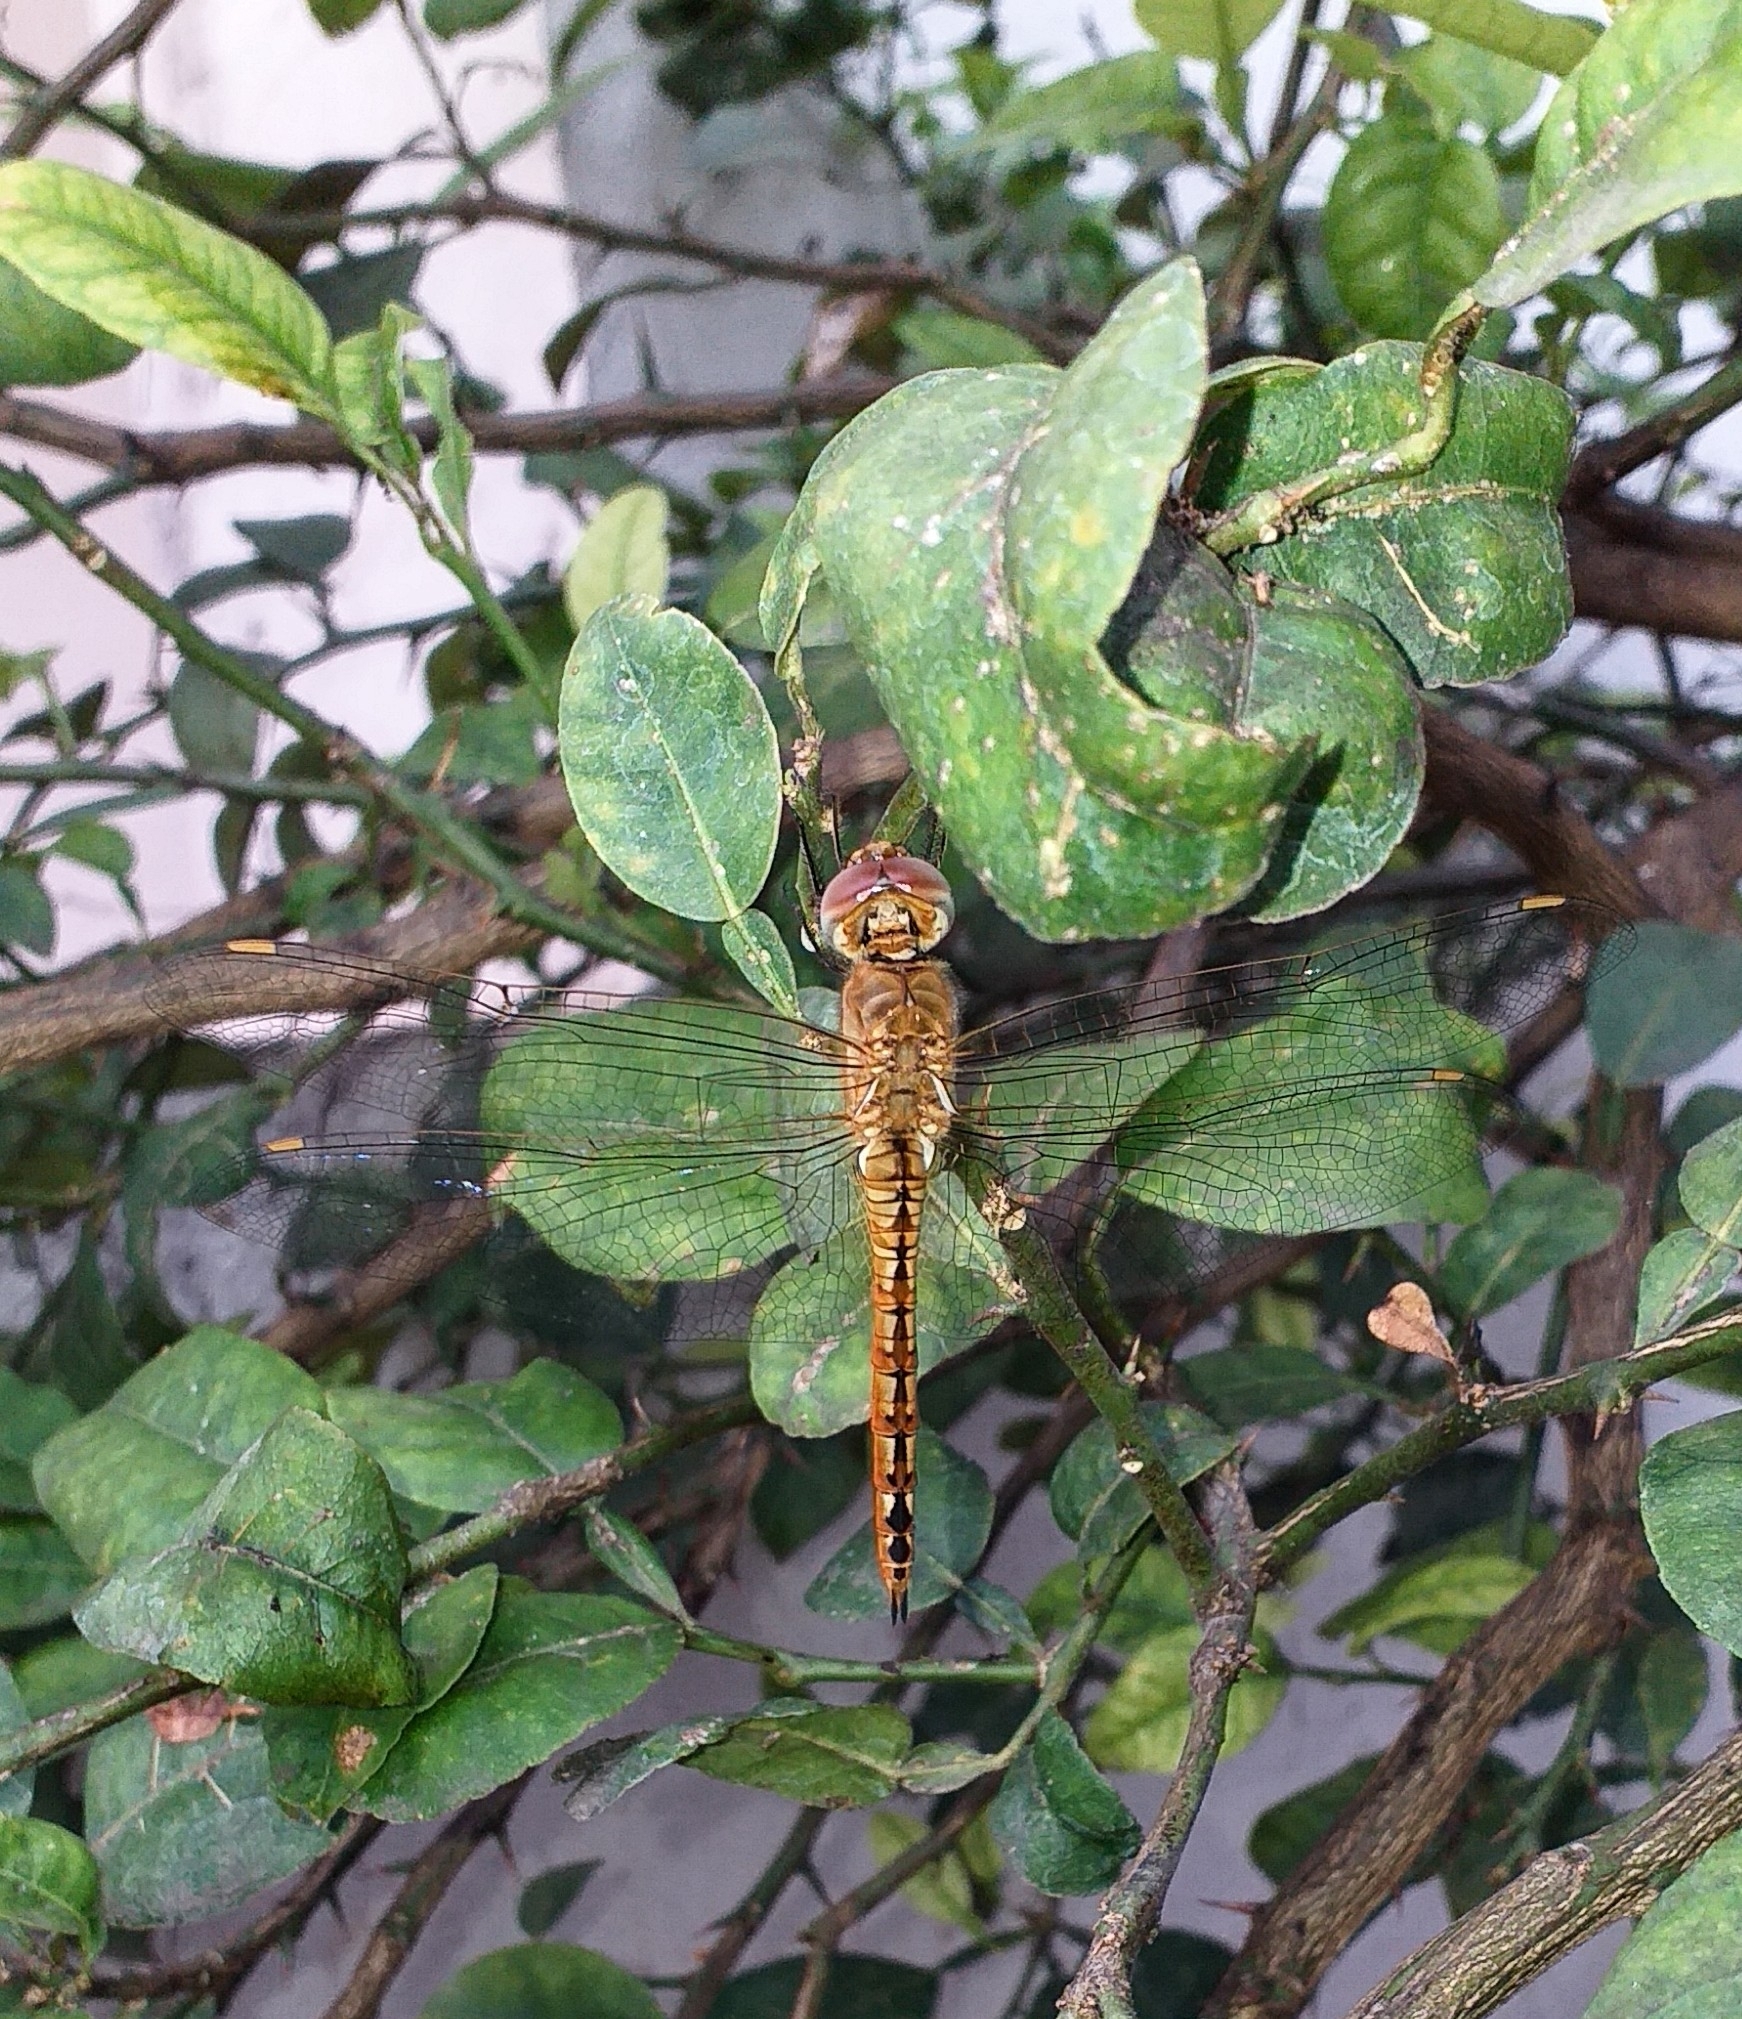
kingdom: Animalia
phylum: Arthropoda
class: Insecta
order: Odonata
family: Libellulidae
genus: Pantala
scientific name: Pantala flavescens
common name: Wandering glider
